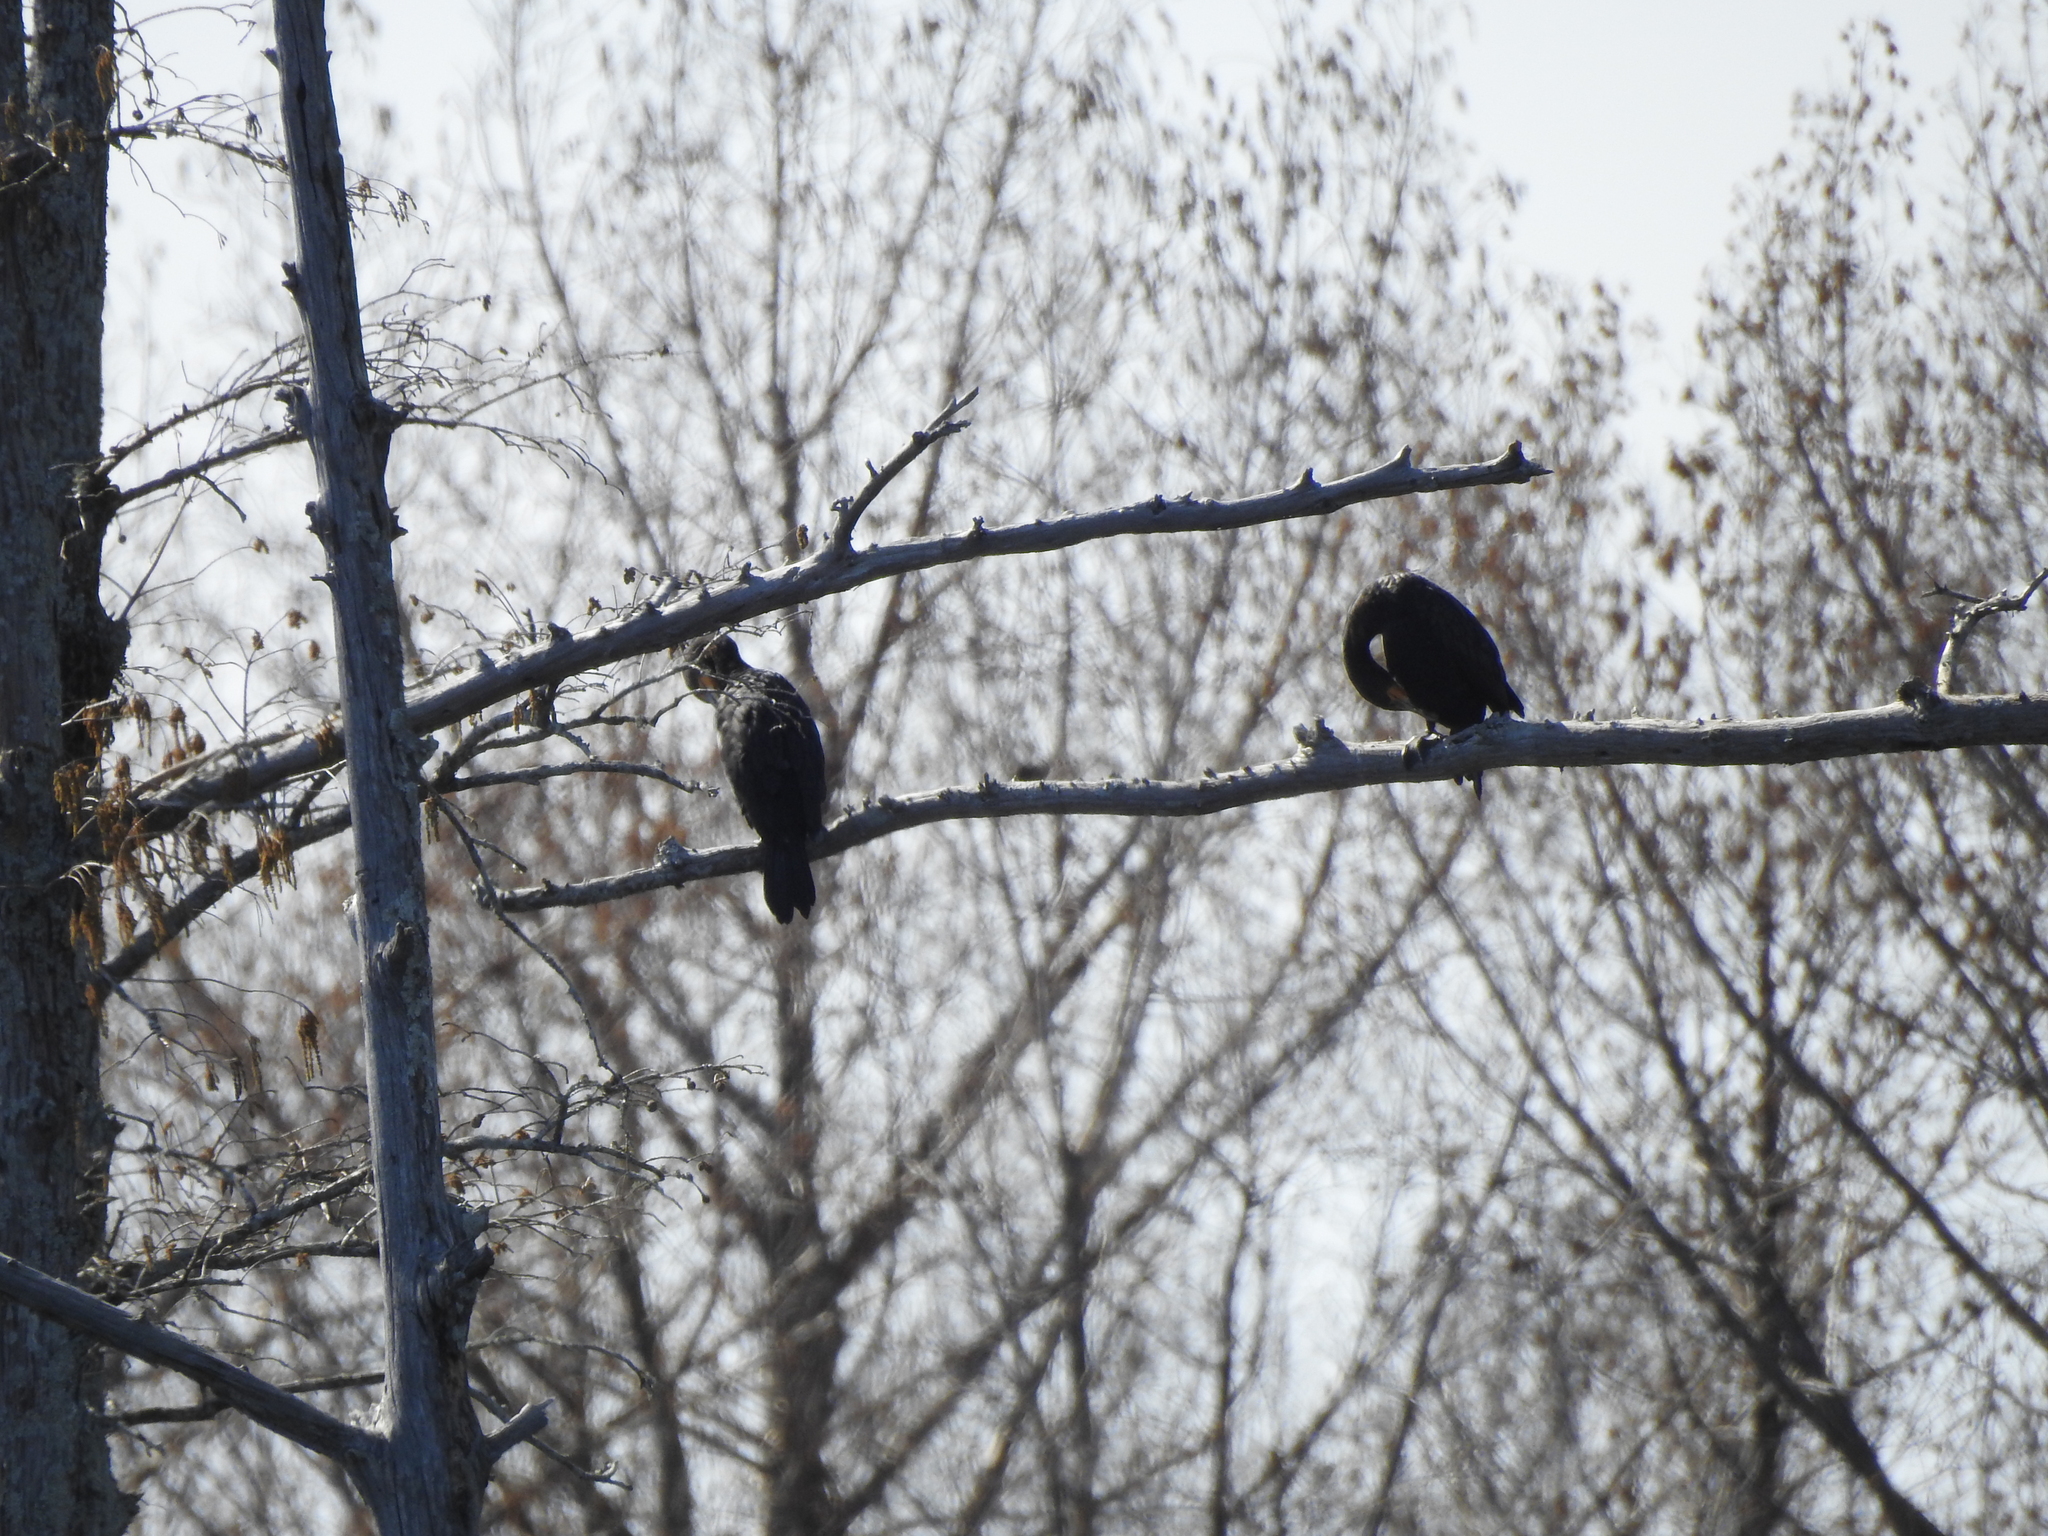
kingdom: Animalia
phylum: Chordata
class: Aves
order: Suliformes
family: Phalacrocoracidae
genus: Phalacrocorax
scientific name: Phalacrocorax auritus
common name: Double-crested cormorant
